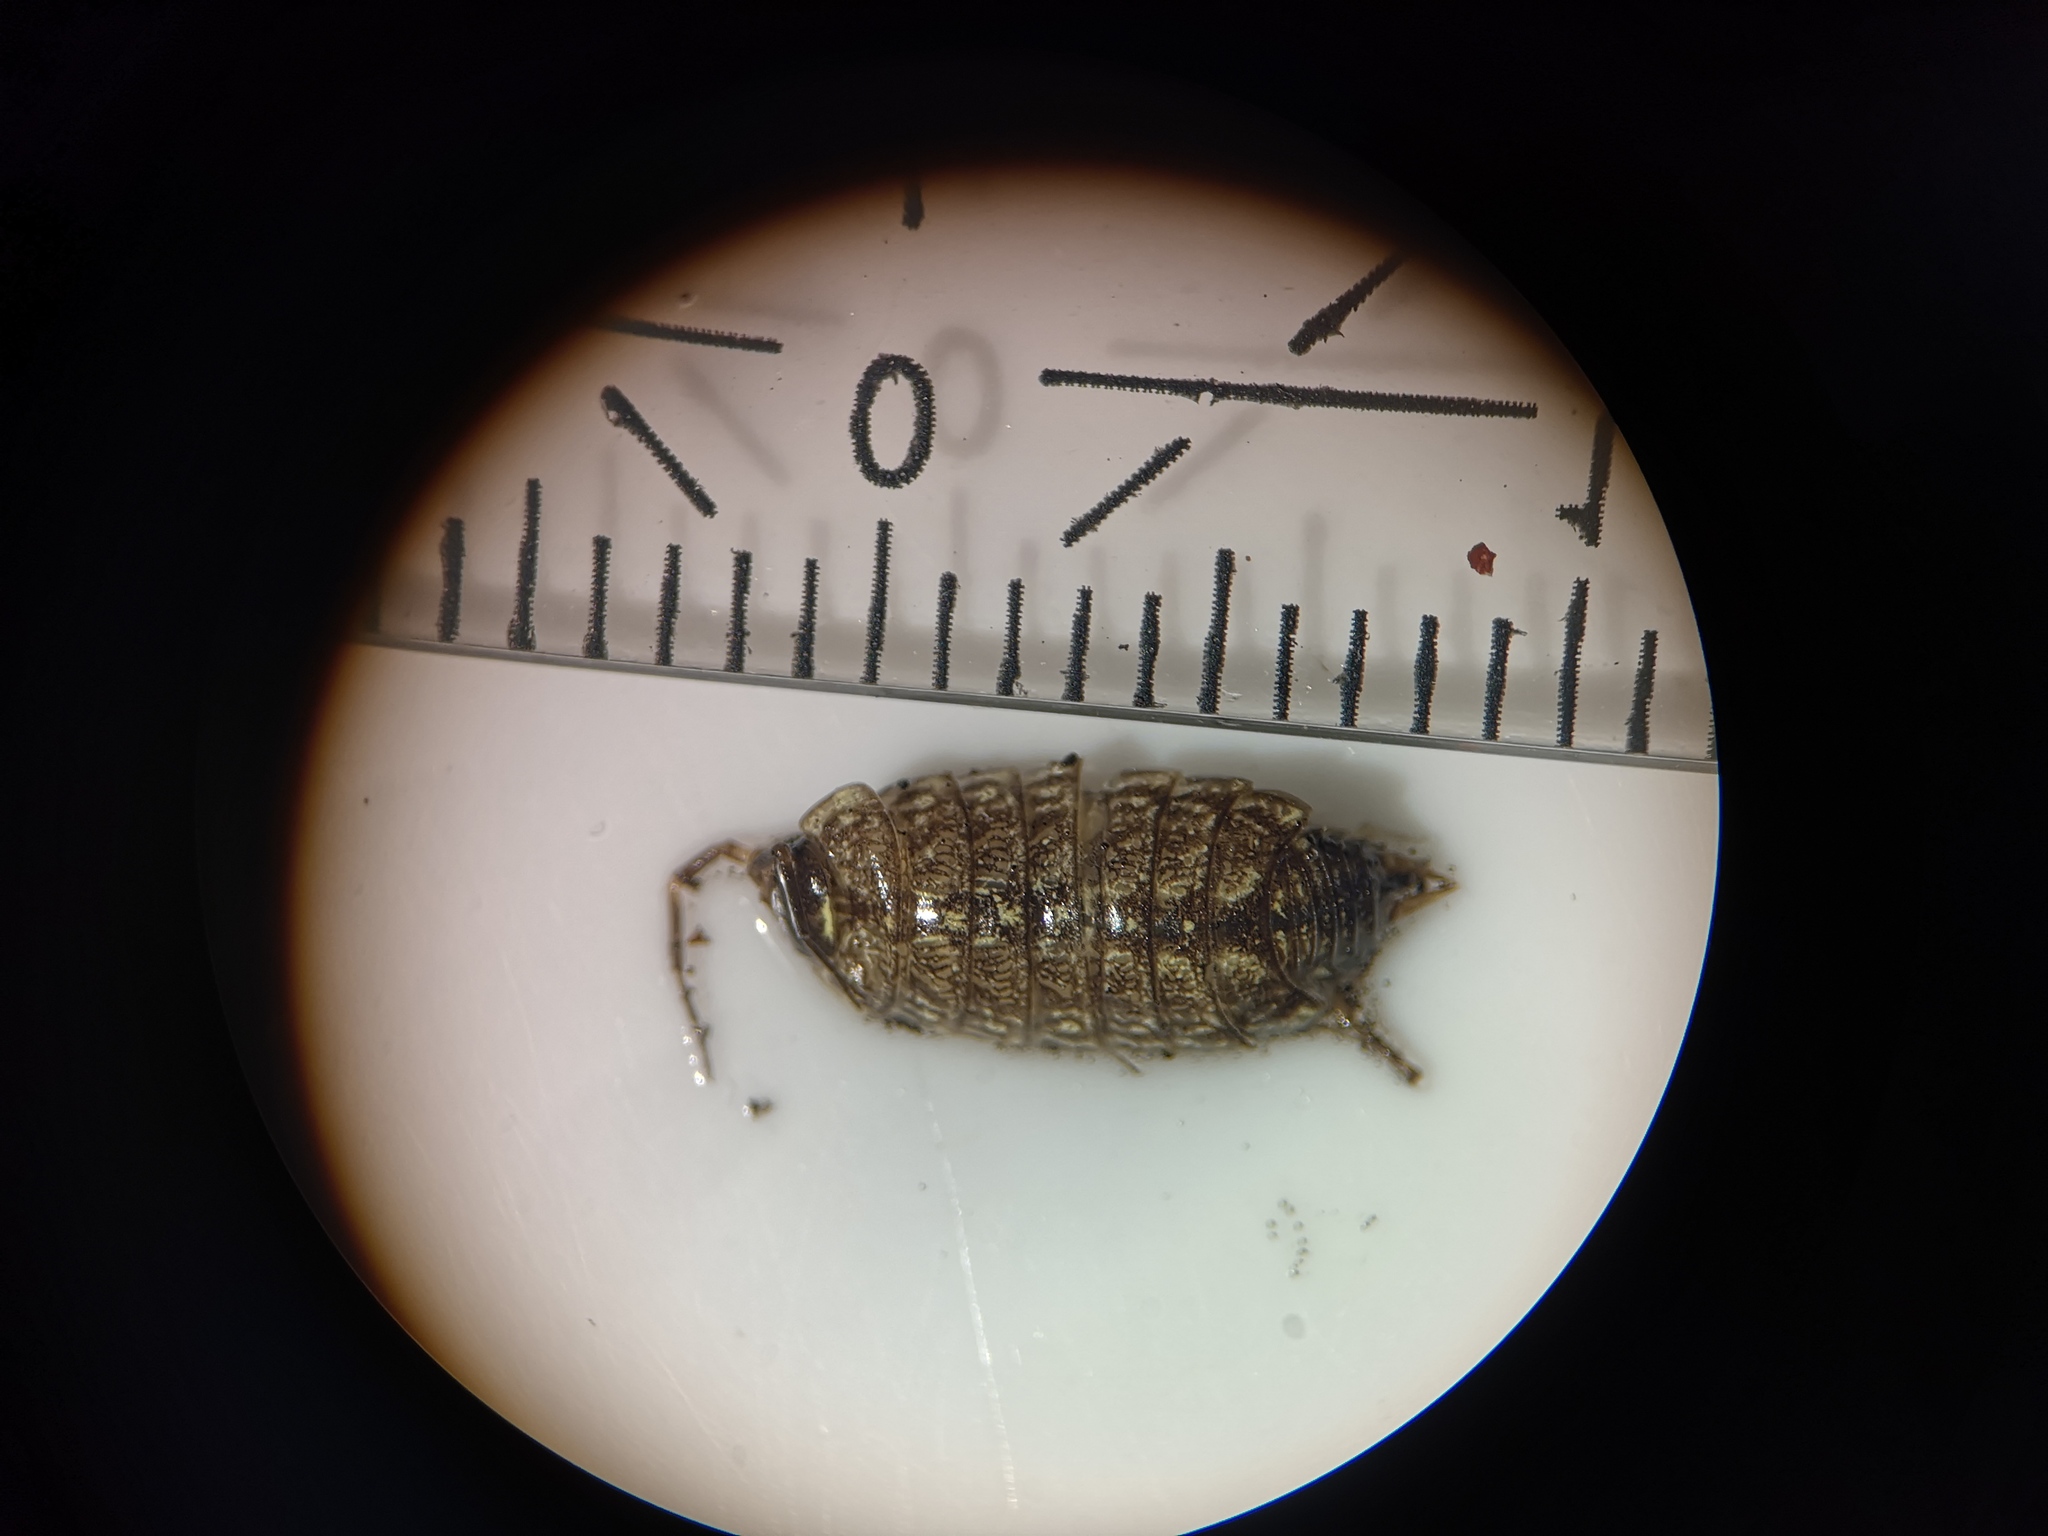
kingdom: Animalia
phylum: Arthropoda
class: Malacostraca
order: Isopoda
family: Philosciidae
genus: Philoscia
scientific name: Philoscia muscorum
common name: Common striped woodlouse
